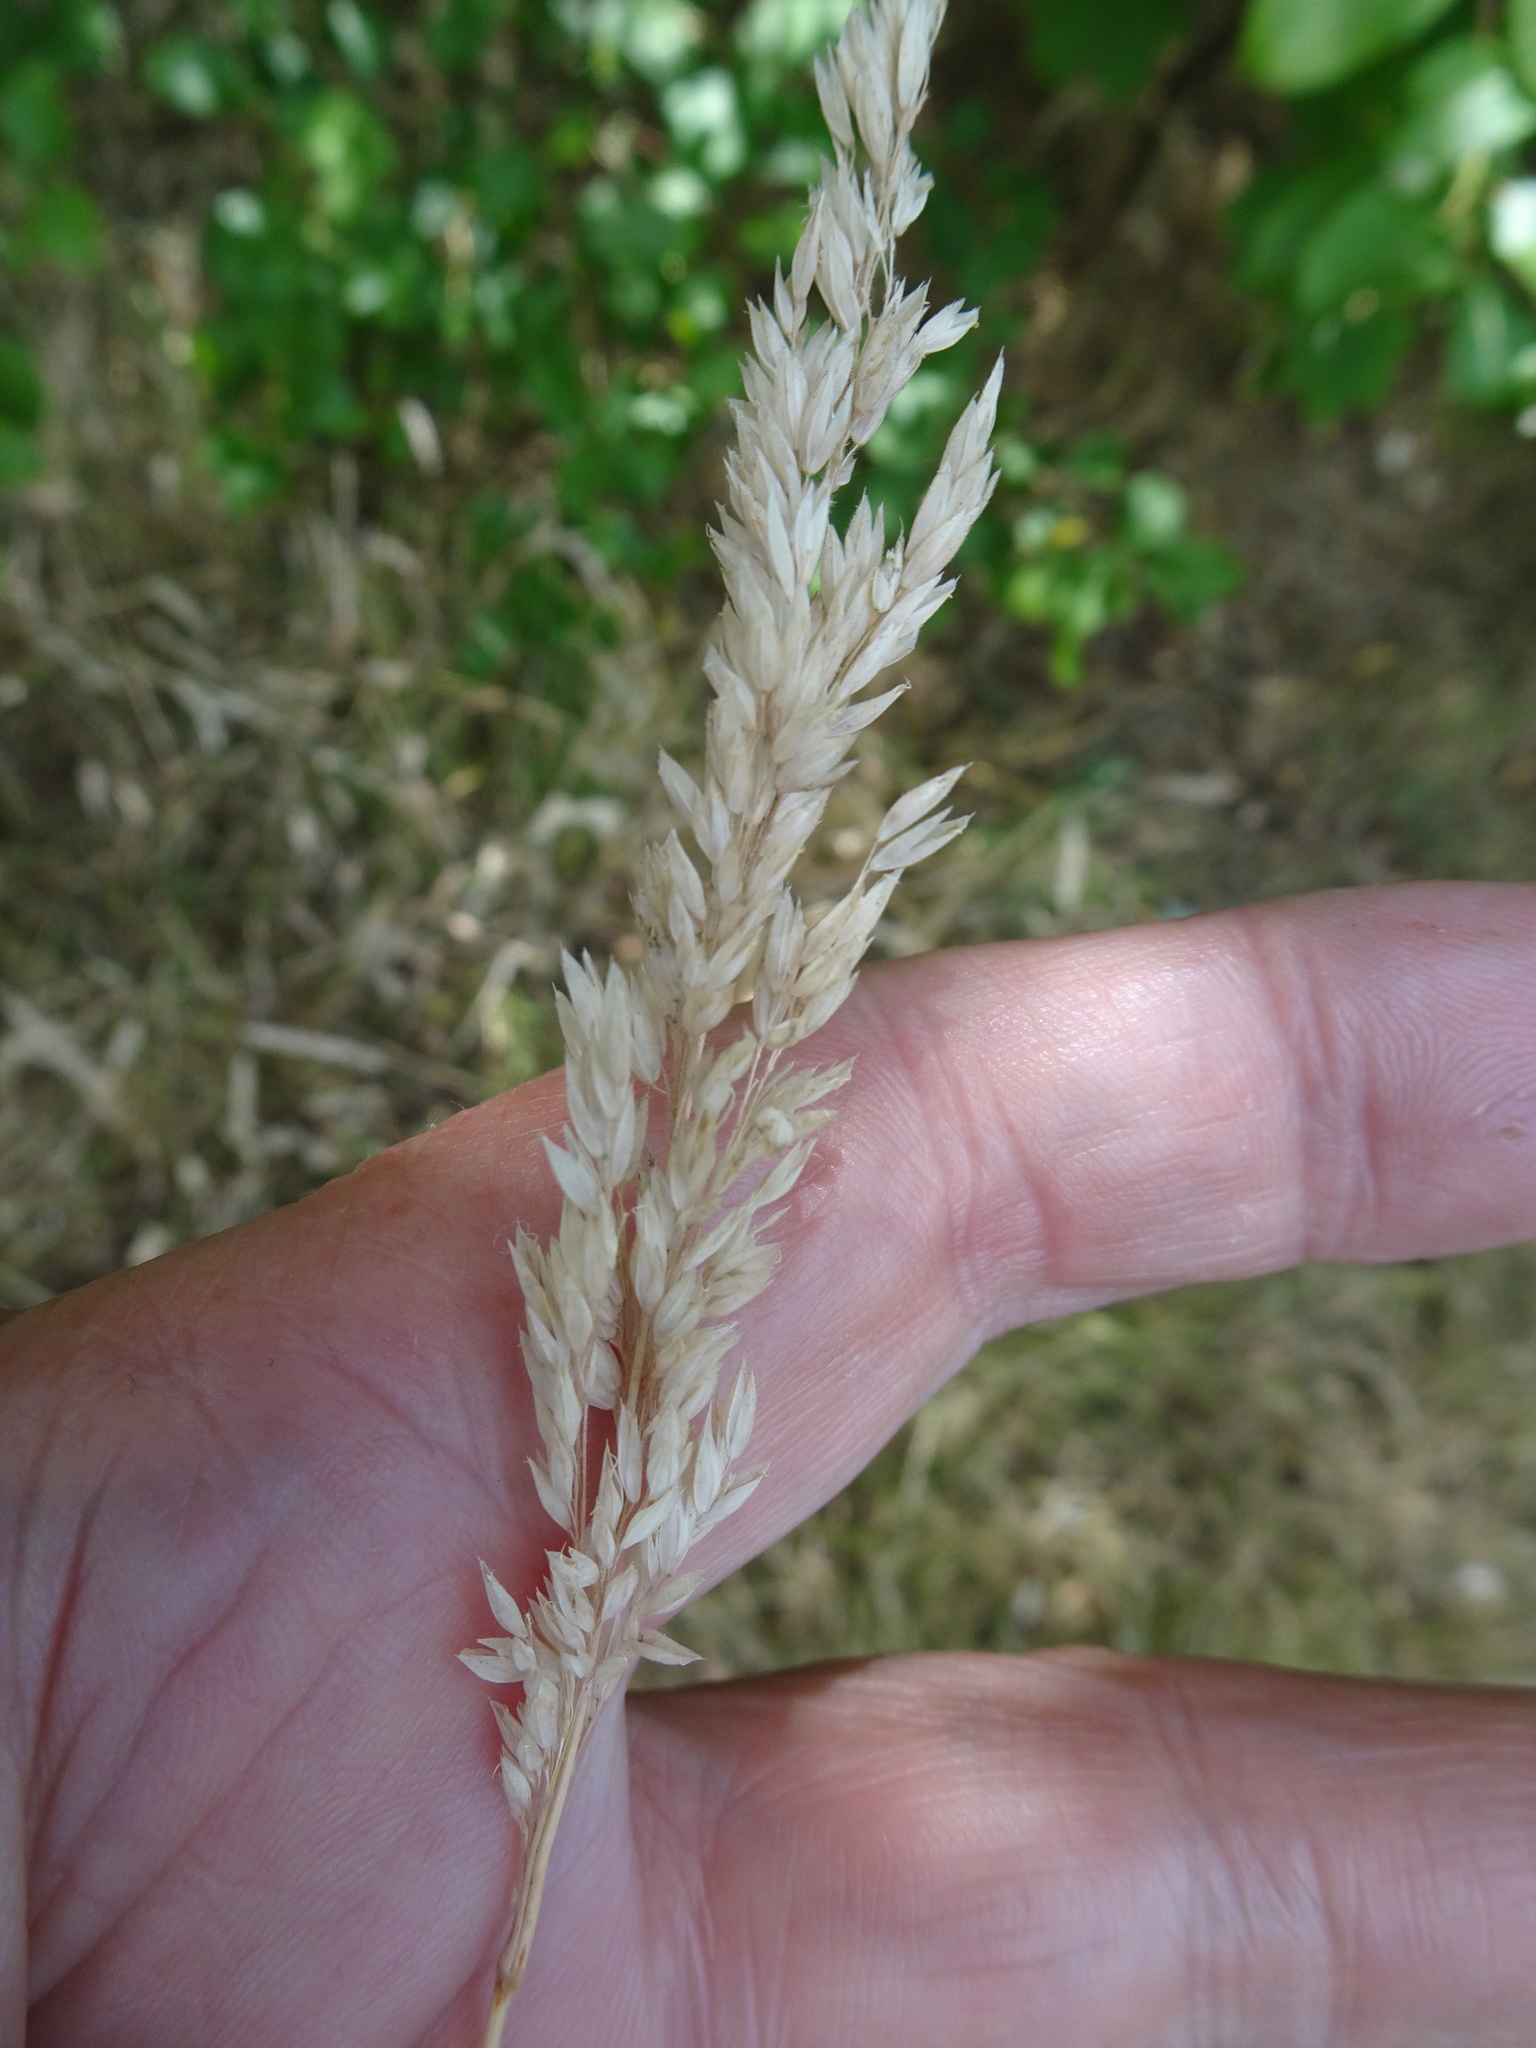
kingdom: Plantae
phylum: Tracheophyta
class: Liliopsida
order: Poales
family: Poaceae
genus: Holcus
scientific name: Holcus lanatus
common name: Yorkshire-fog
